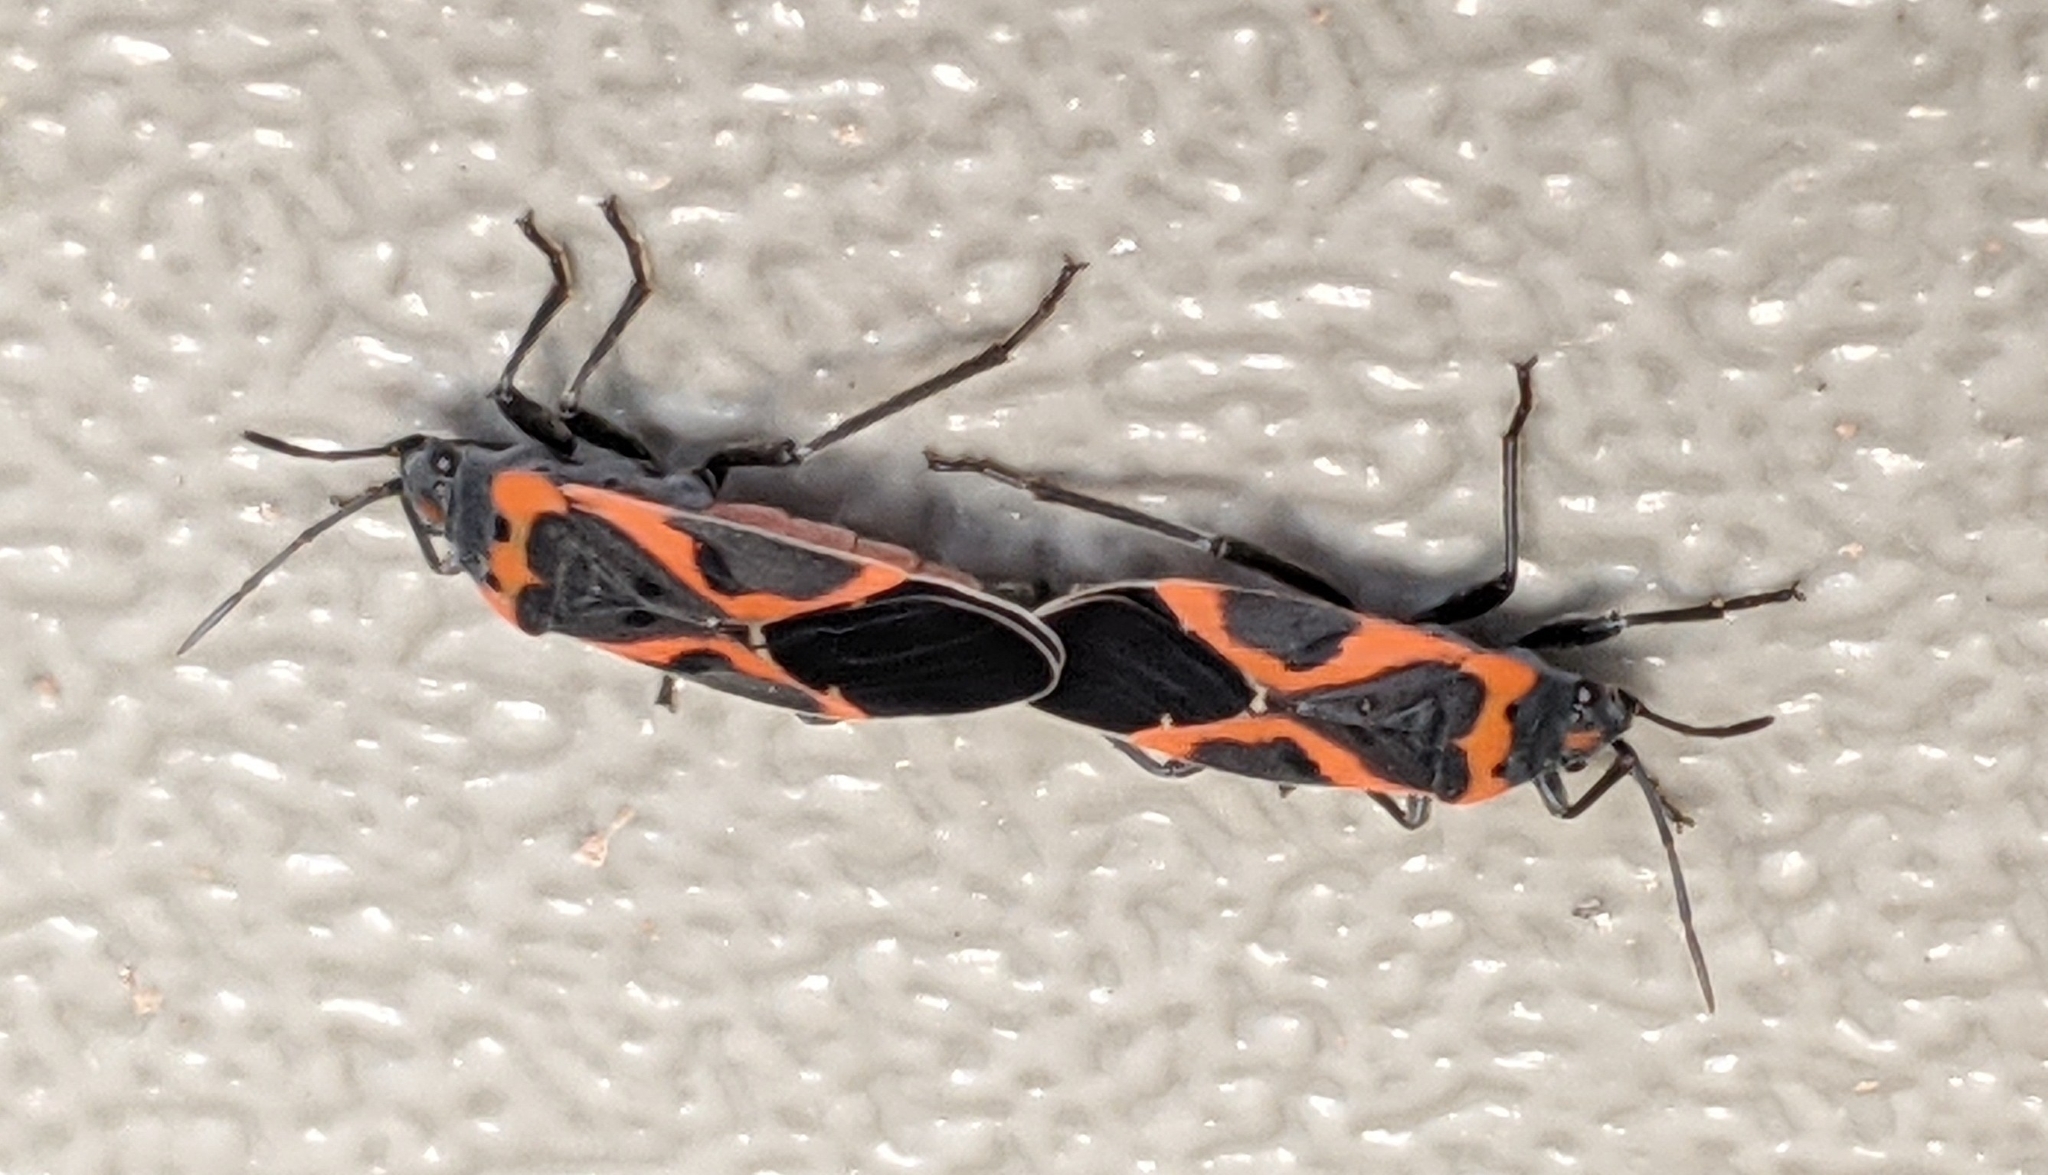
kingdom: Animalia
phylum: Arthropoda
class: Insecta
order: Hemiptera
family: Lygaeidae
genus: Lygaeus
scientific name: Lygaeus kalmii
